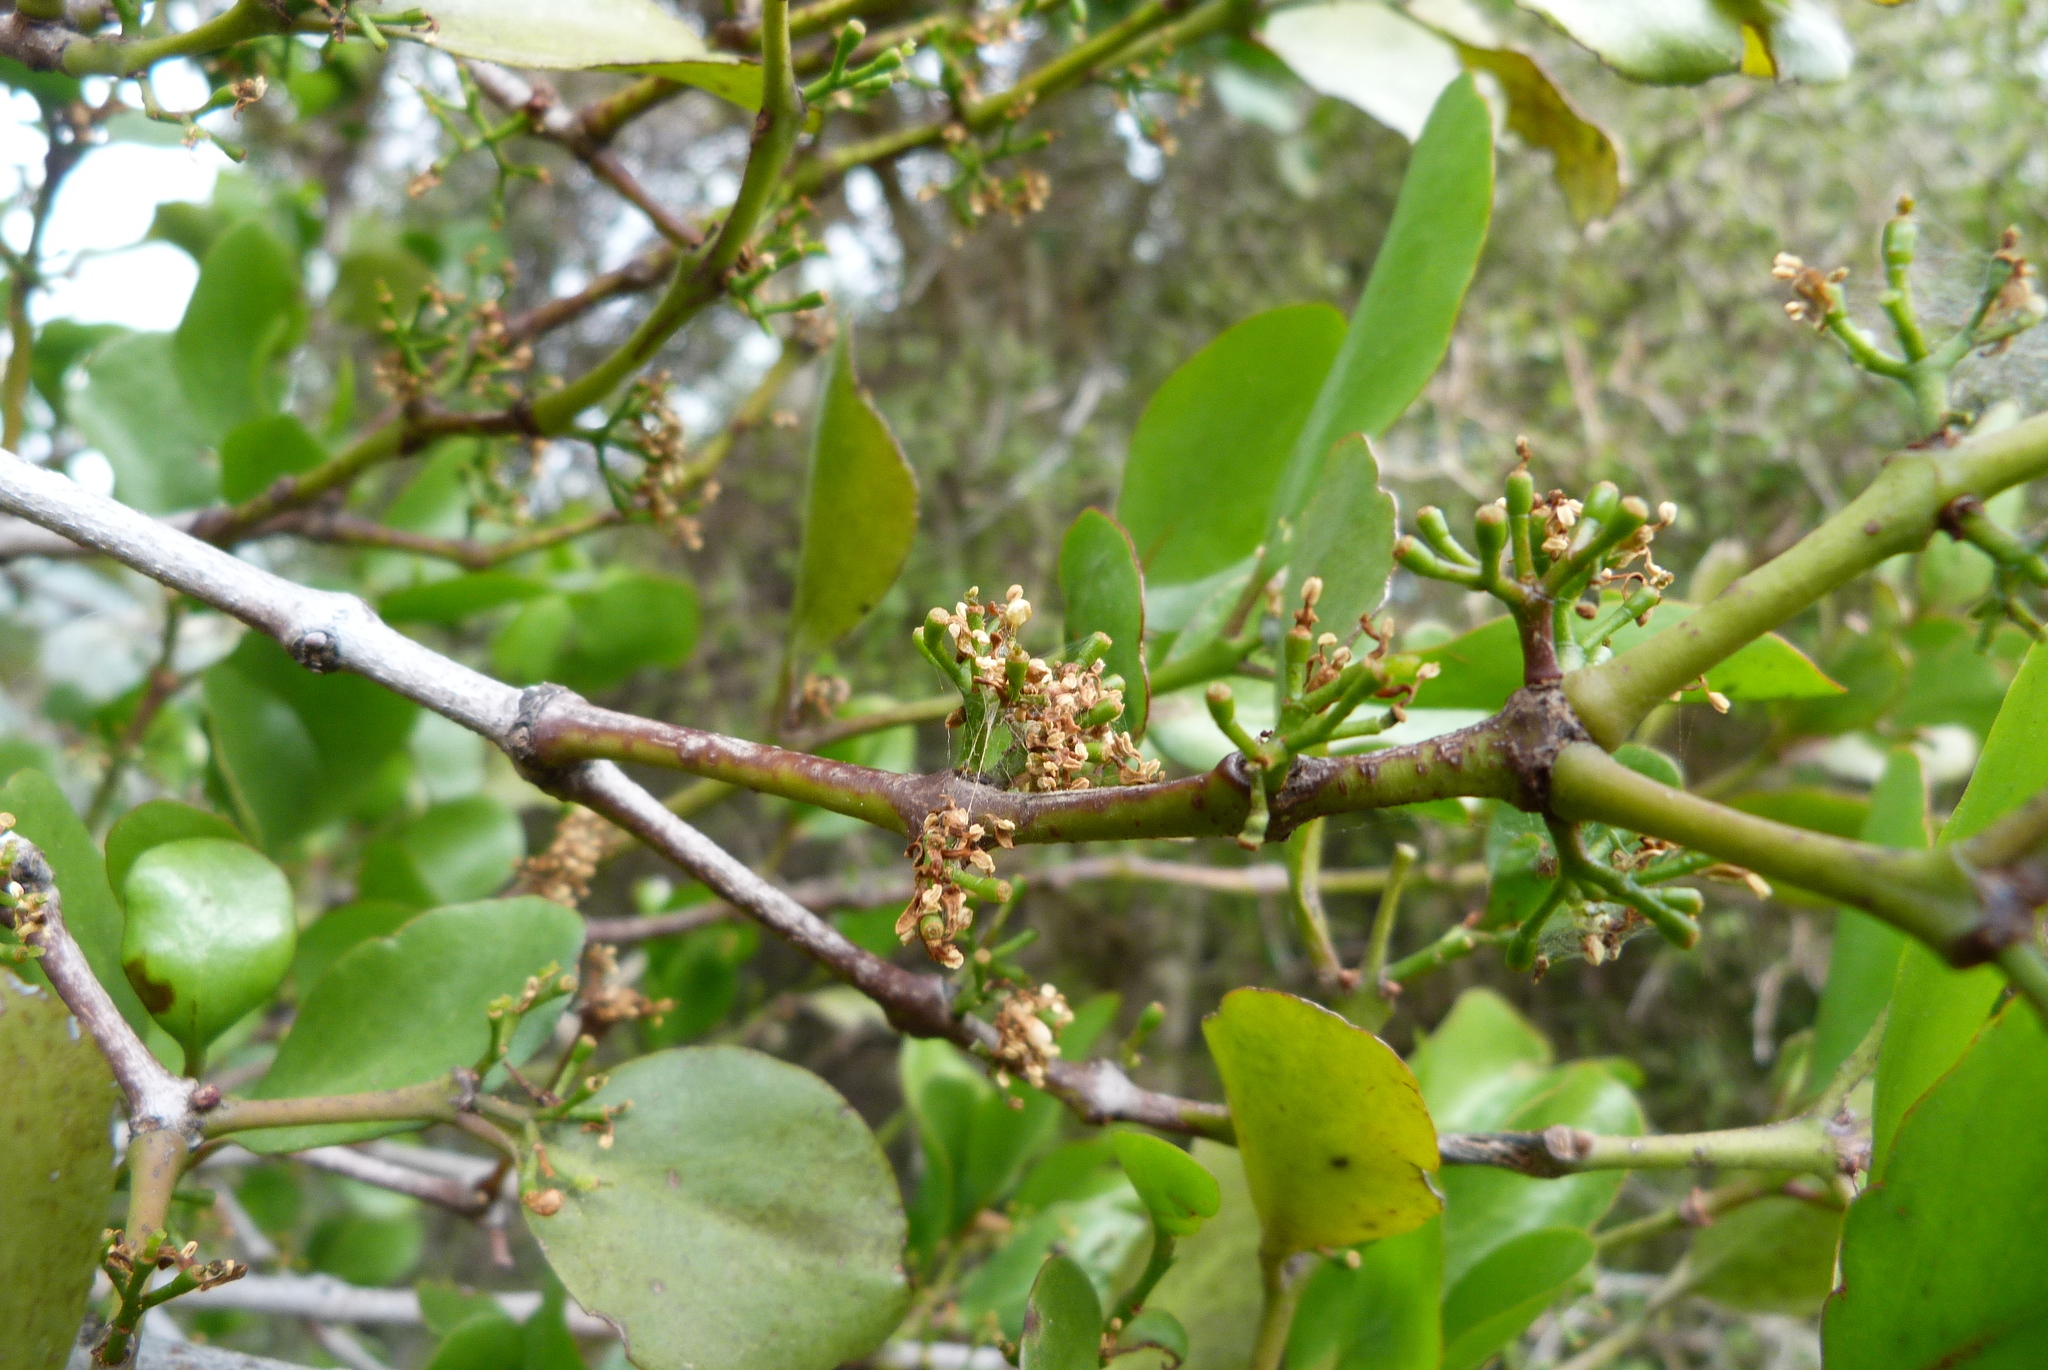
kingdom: Plantae
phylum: Tracheophyta
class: Magnoliopsida
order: Santalales
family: Loranthaceae
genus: Ileostylus
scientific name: Ileostylus micranthus
